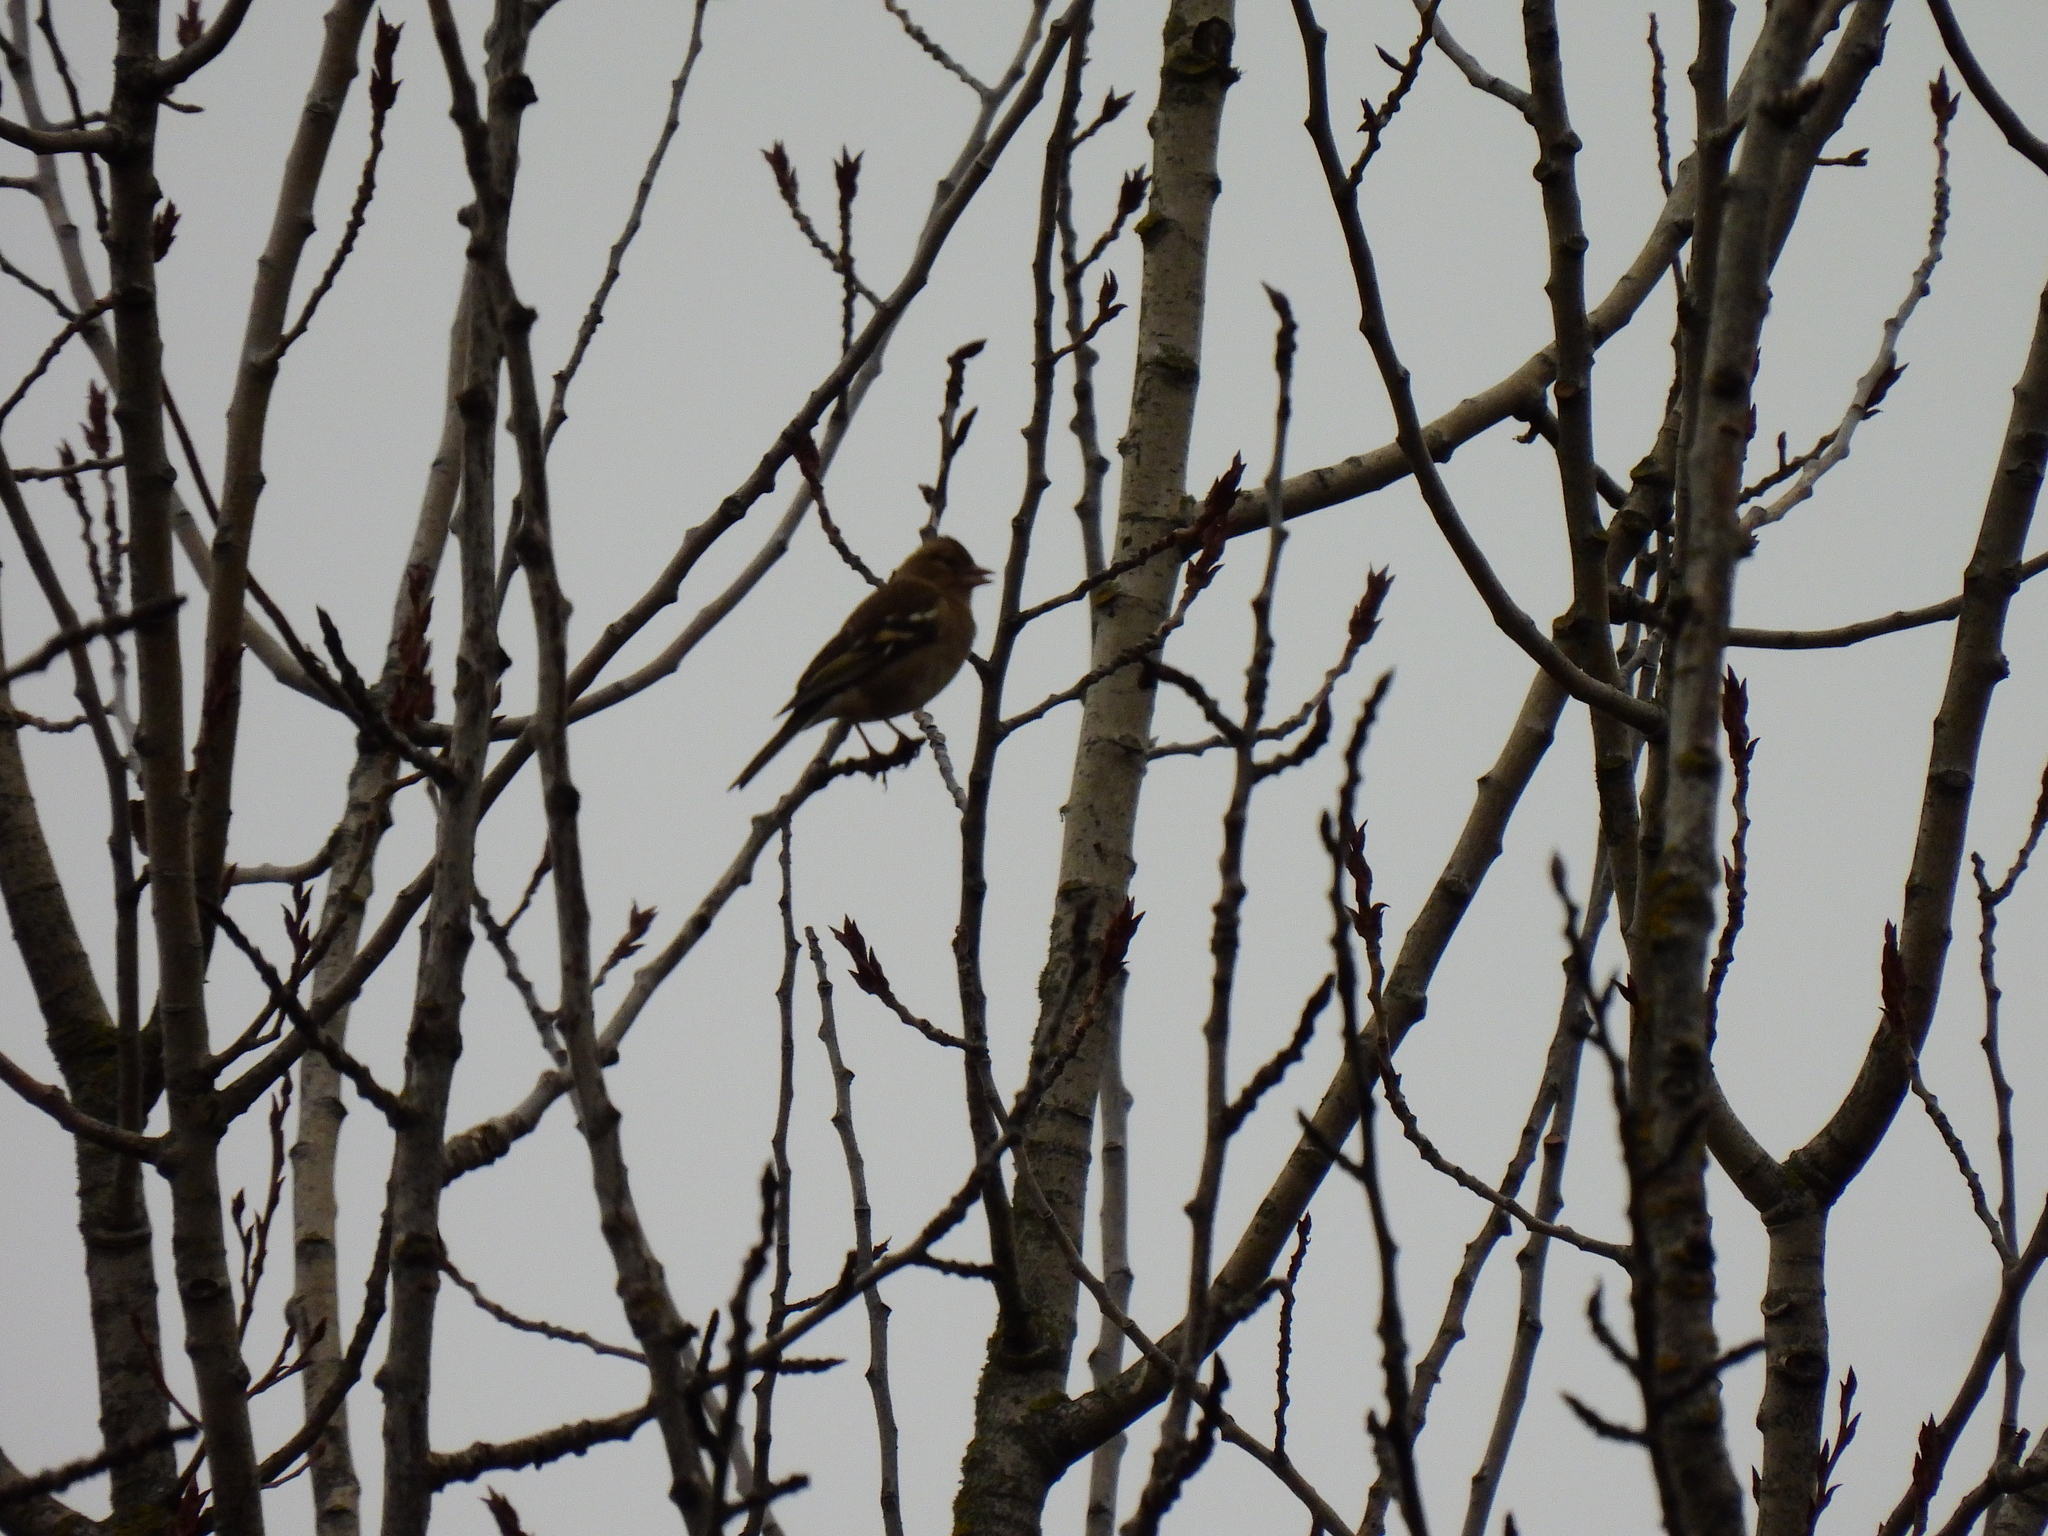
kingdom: Animalia
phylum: Chordata
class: Aves
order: Passeriformes
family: Fringillidae
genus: Fringilla
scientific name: Fringilla coelebs
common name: Common chaffinch
